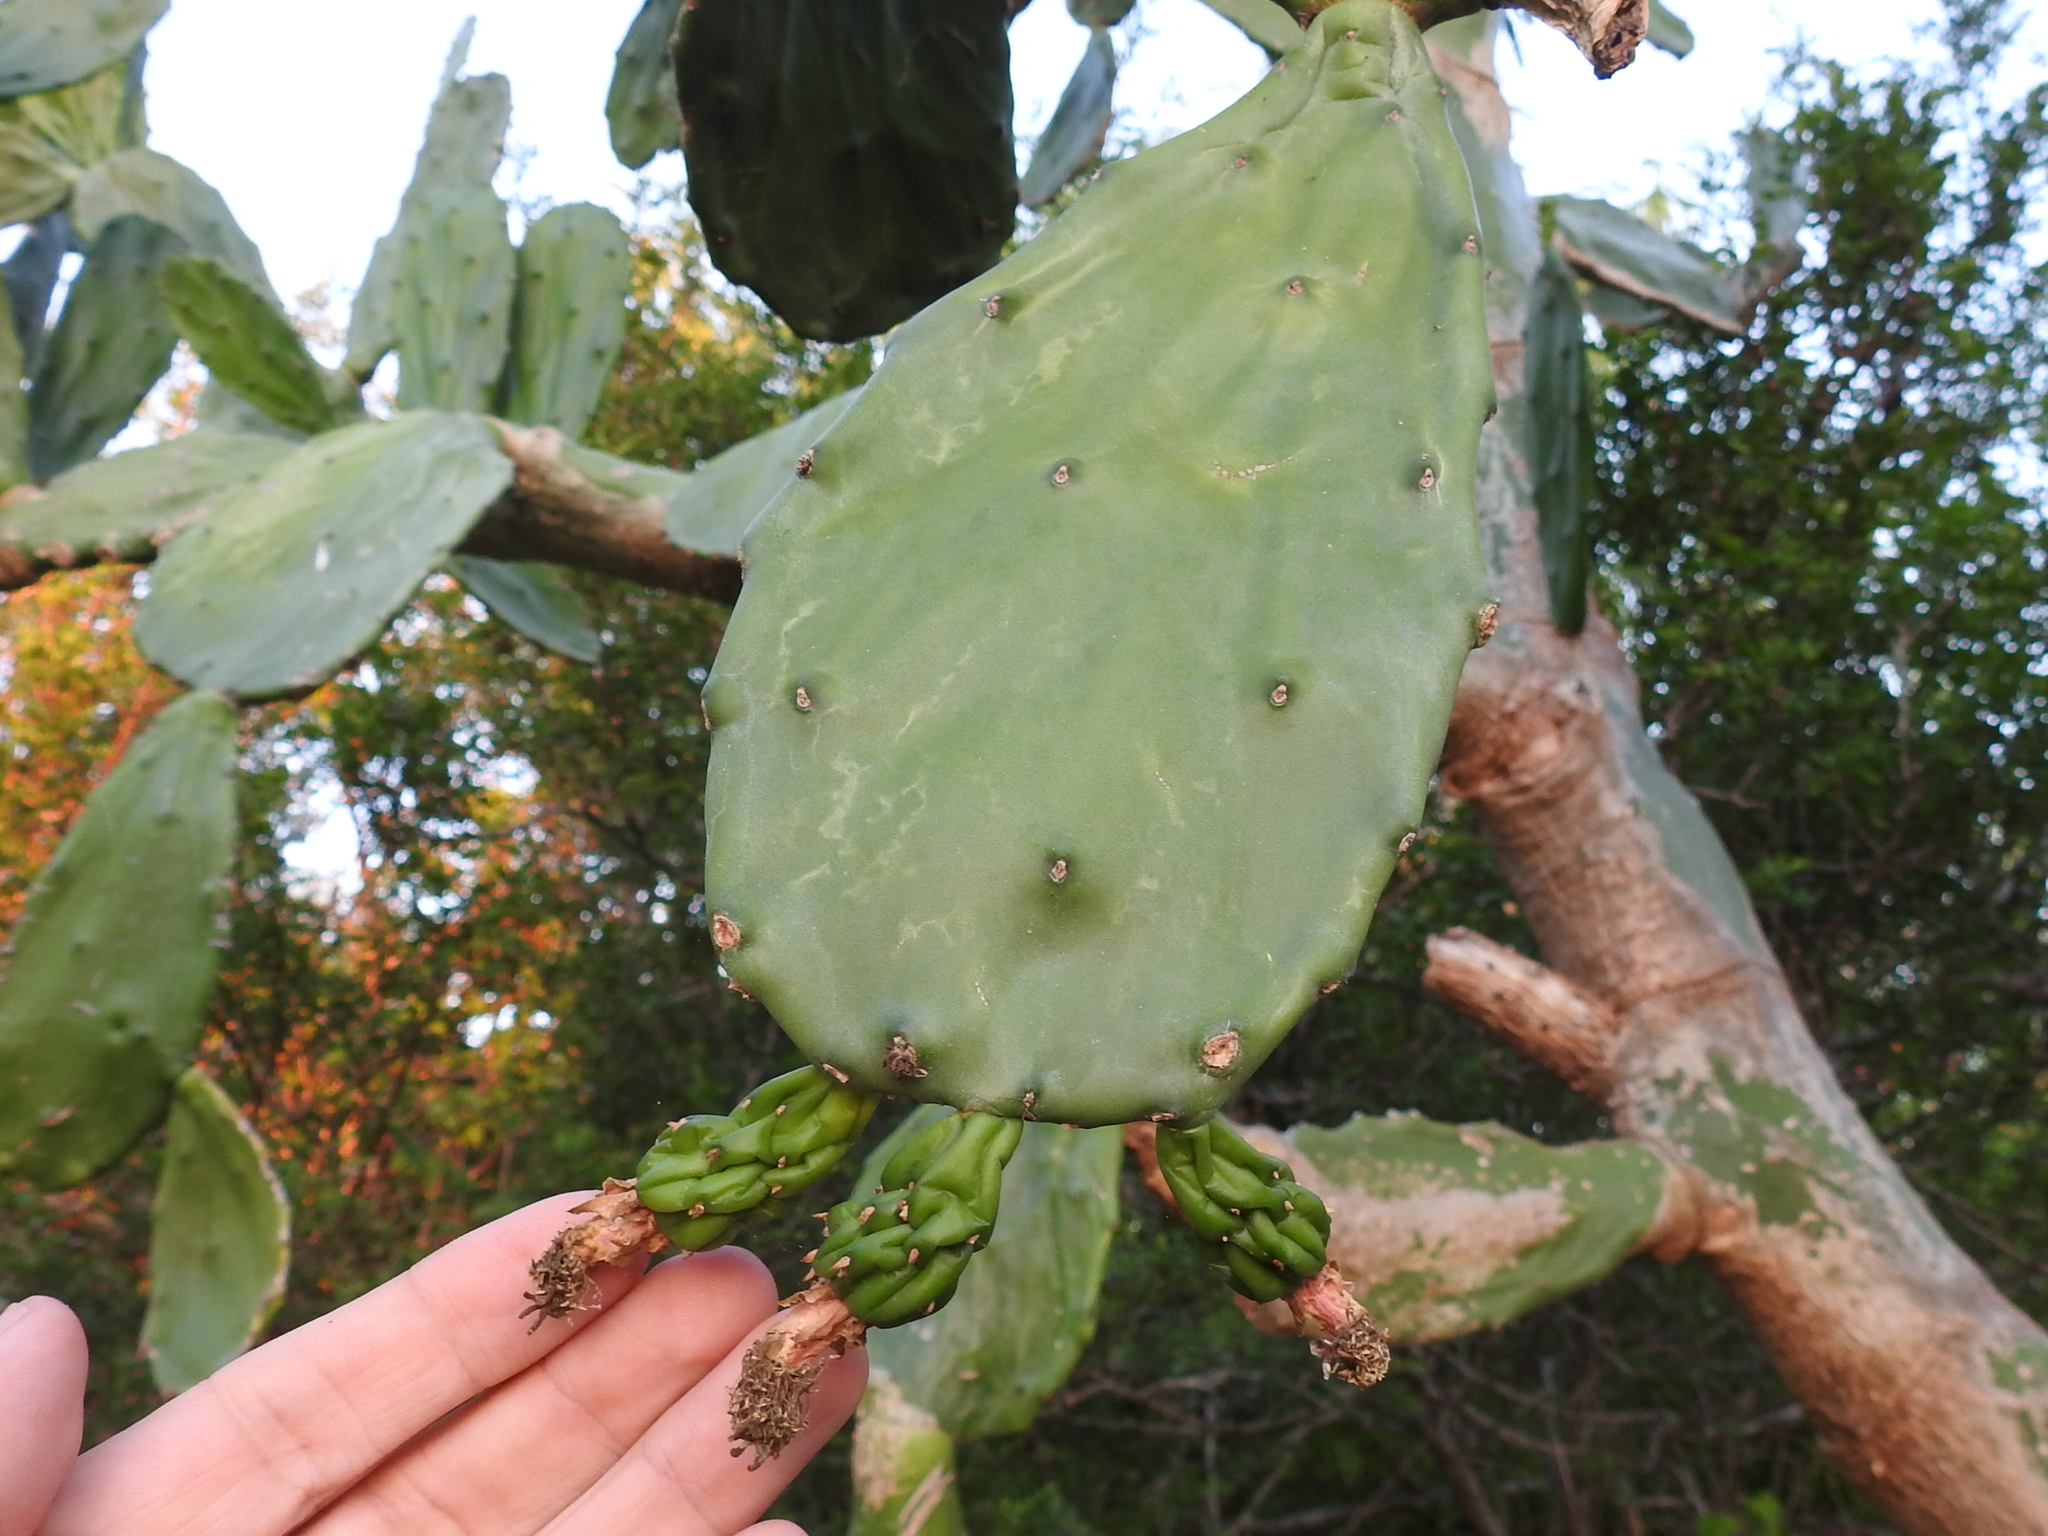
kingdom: Plantae
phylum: Tracheophyta
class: Magnoliopsida
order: Caryophyllales
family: Cactaceae
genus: Opuntia
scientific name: Opuntia cochenillifera
